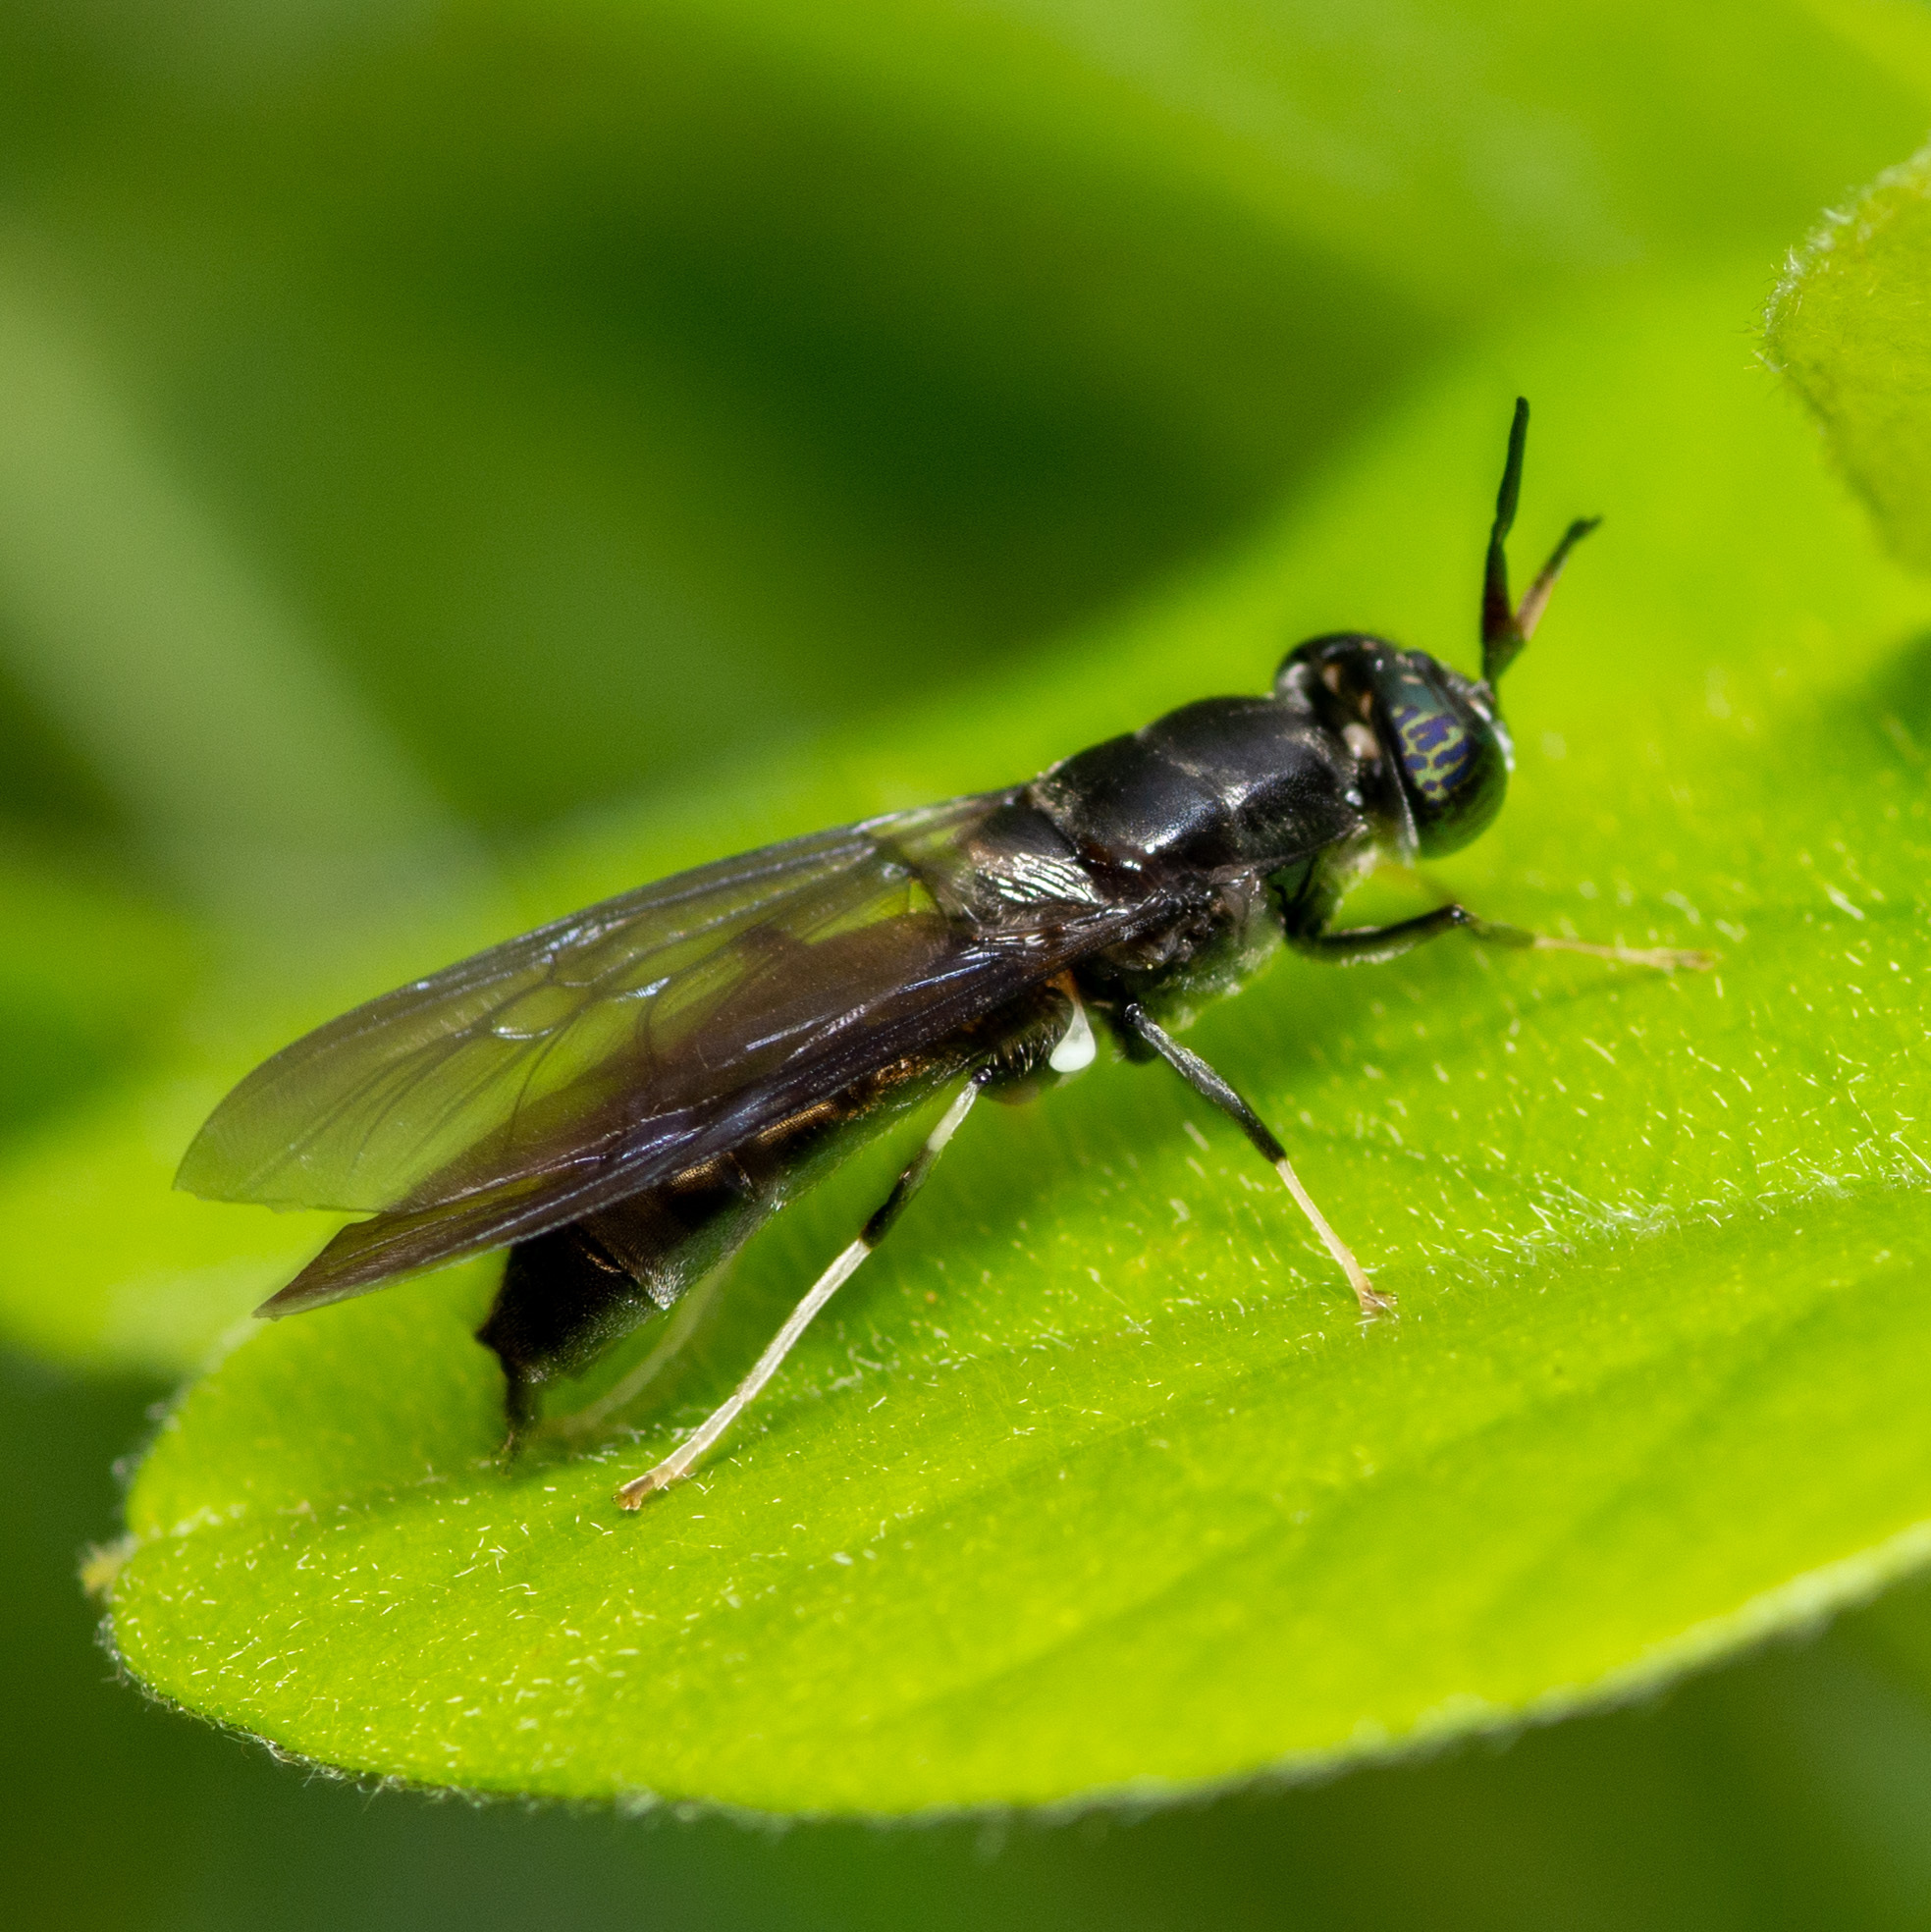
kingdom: Animalia
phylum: Arthropoda
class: Insecta
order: Diptera
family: Stratiomyidae
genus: Hermetia
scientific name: Hermetia illucens
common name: Black soldier fly
